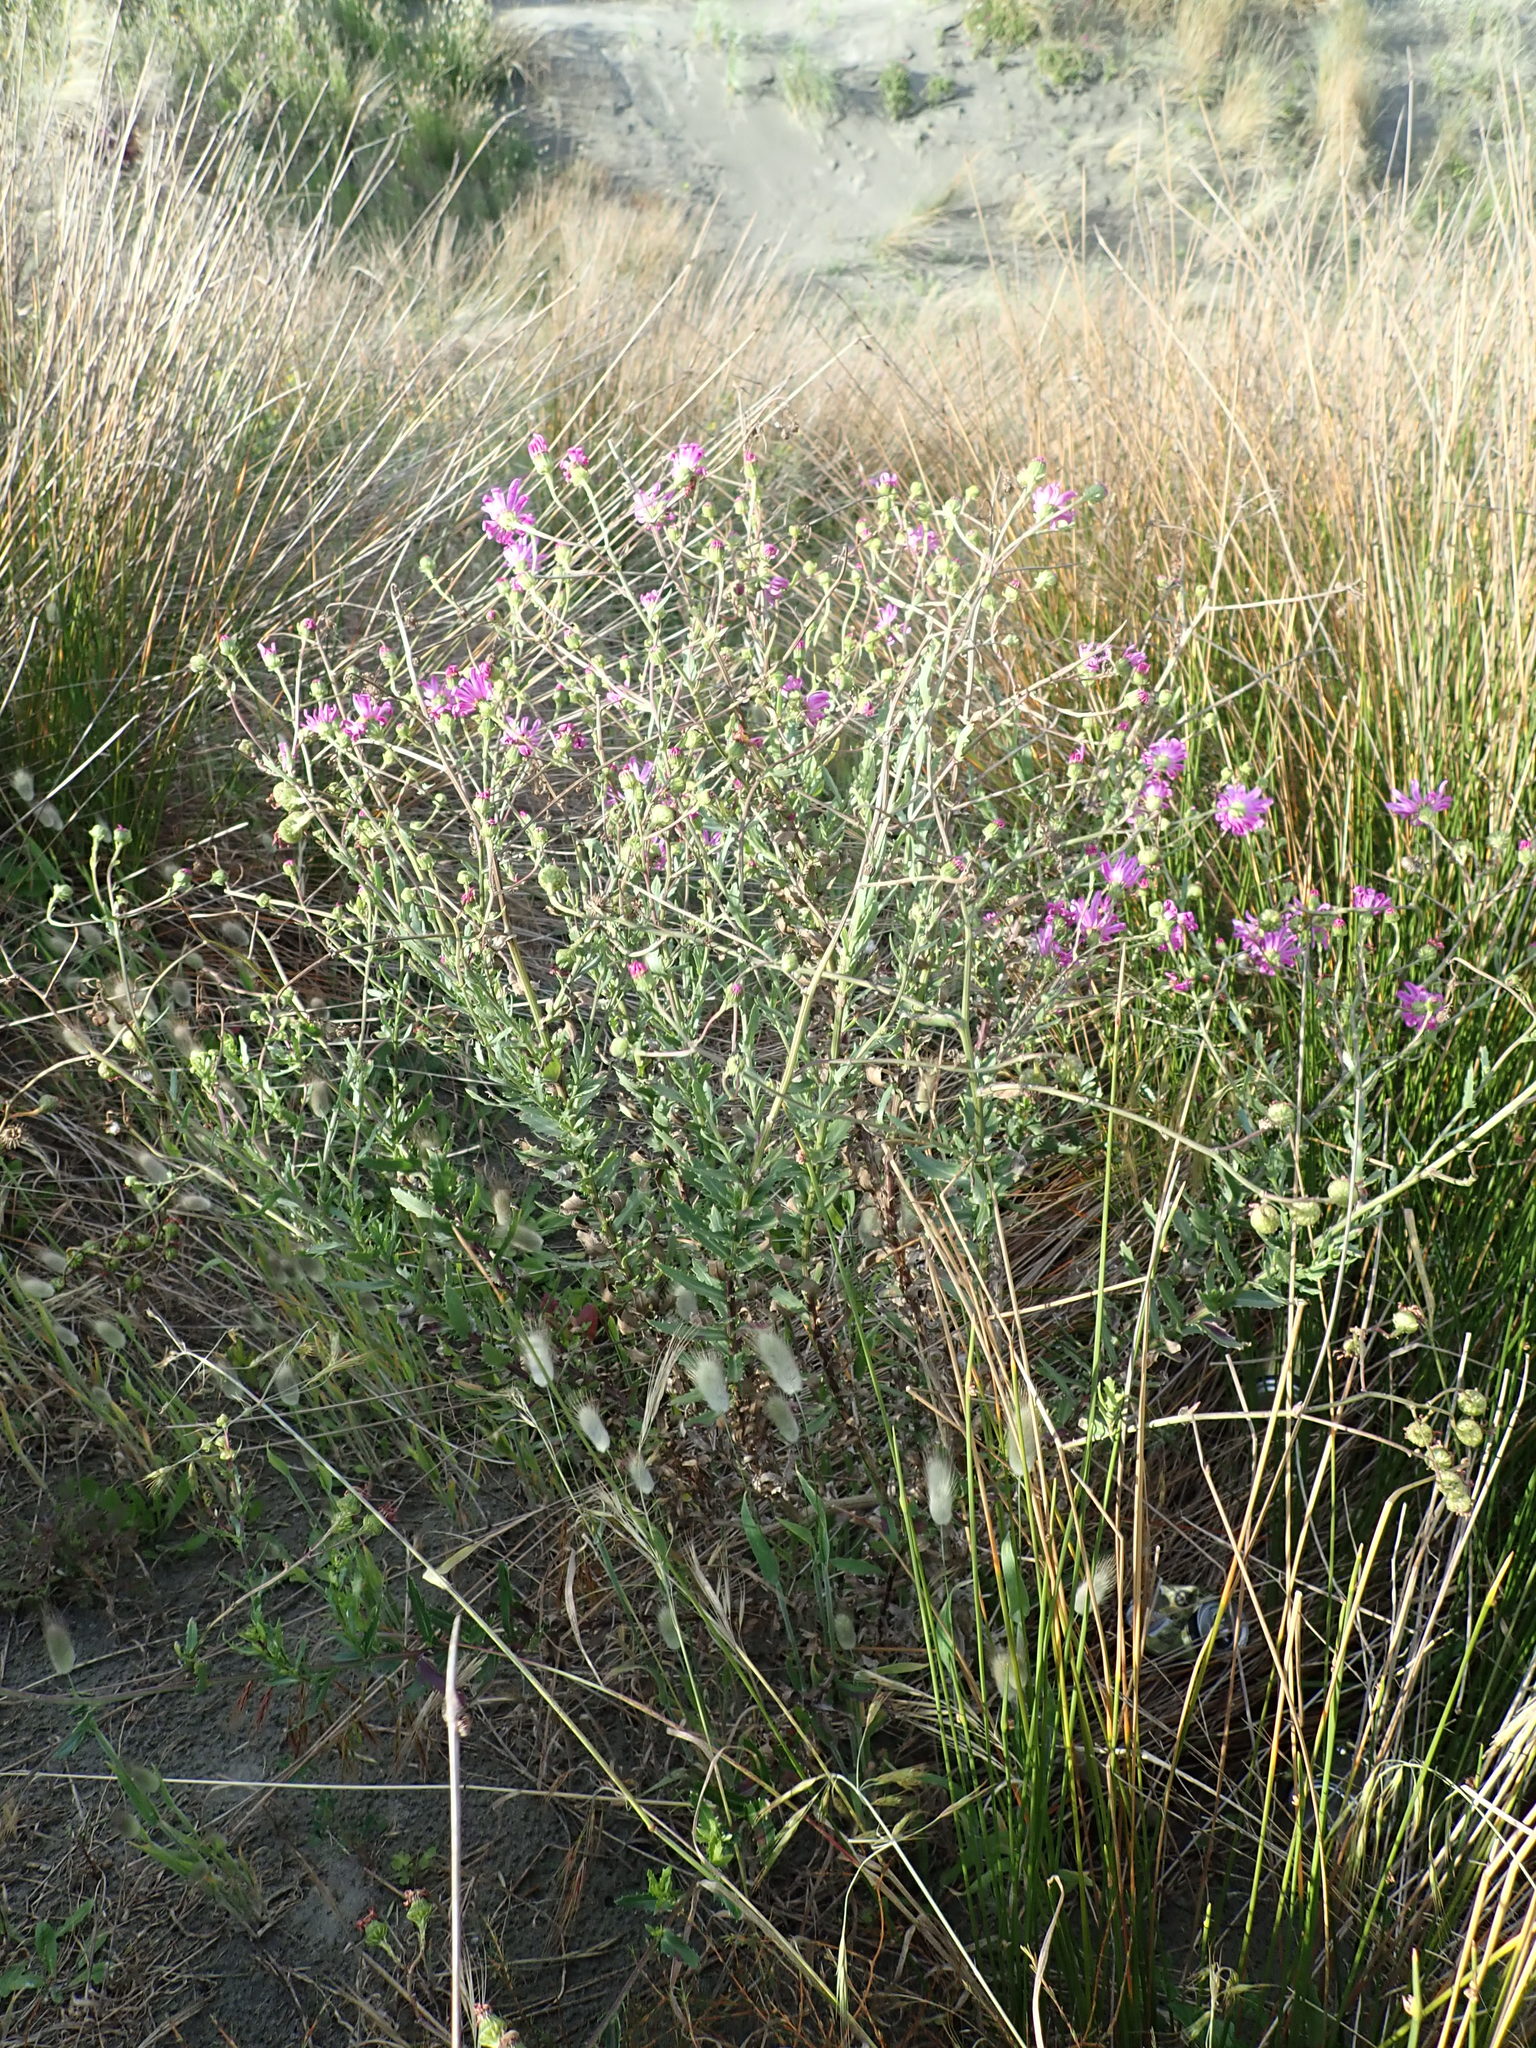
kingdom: Plantae
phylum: Tracheophyta
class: Magnoliopsida
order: Asterales
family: Asteraceae
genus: Senecio
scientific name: Senecio glastifolius
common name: Woad-leaved ragwort
